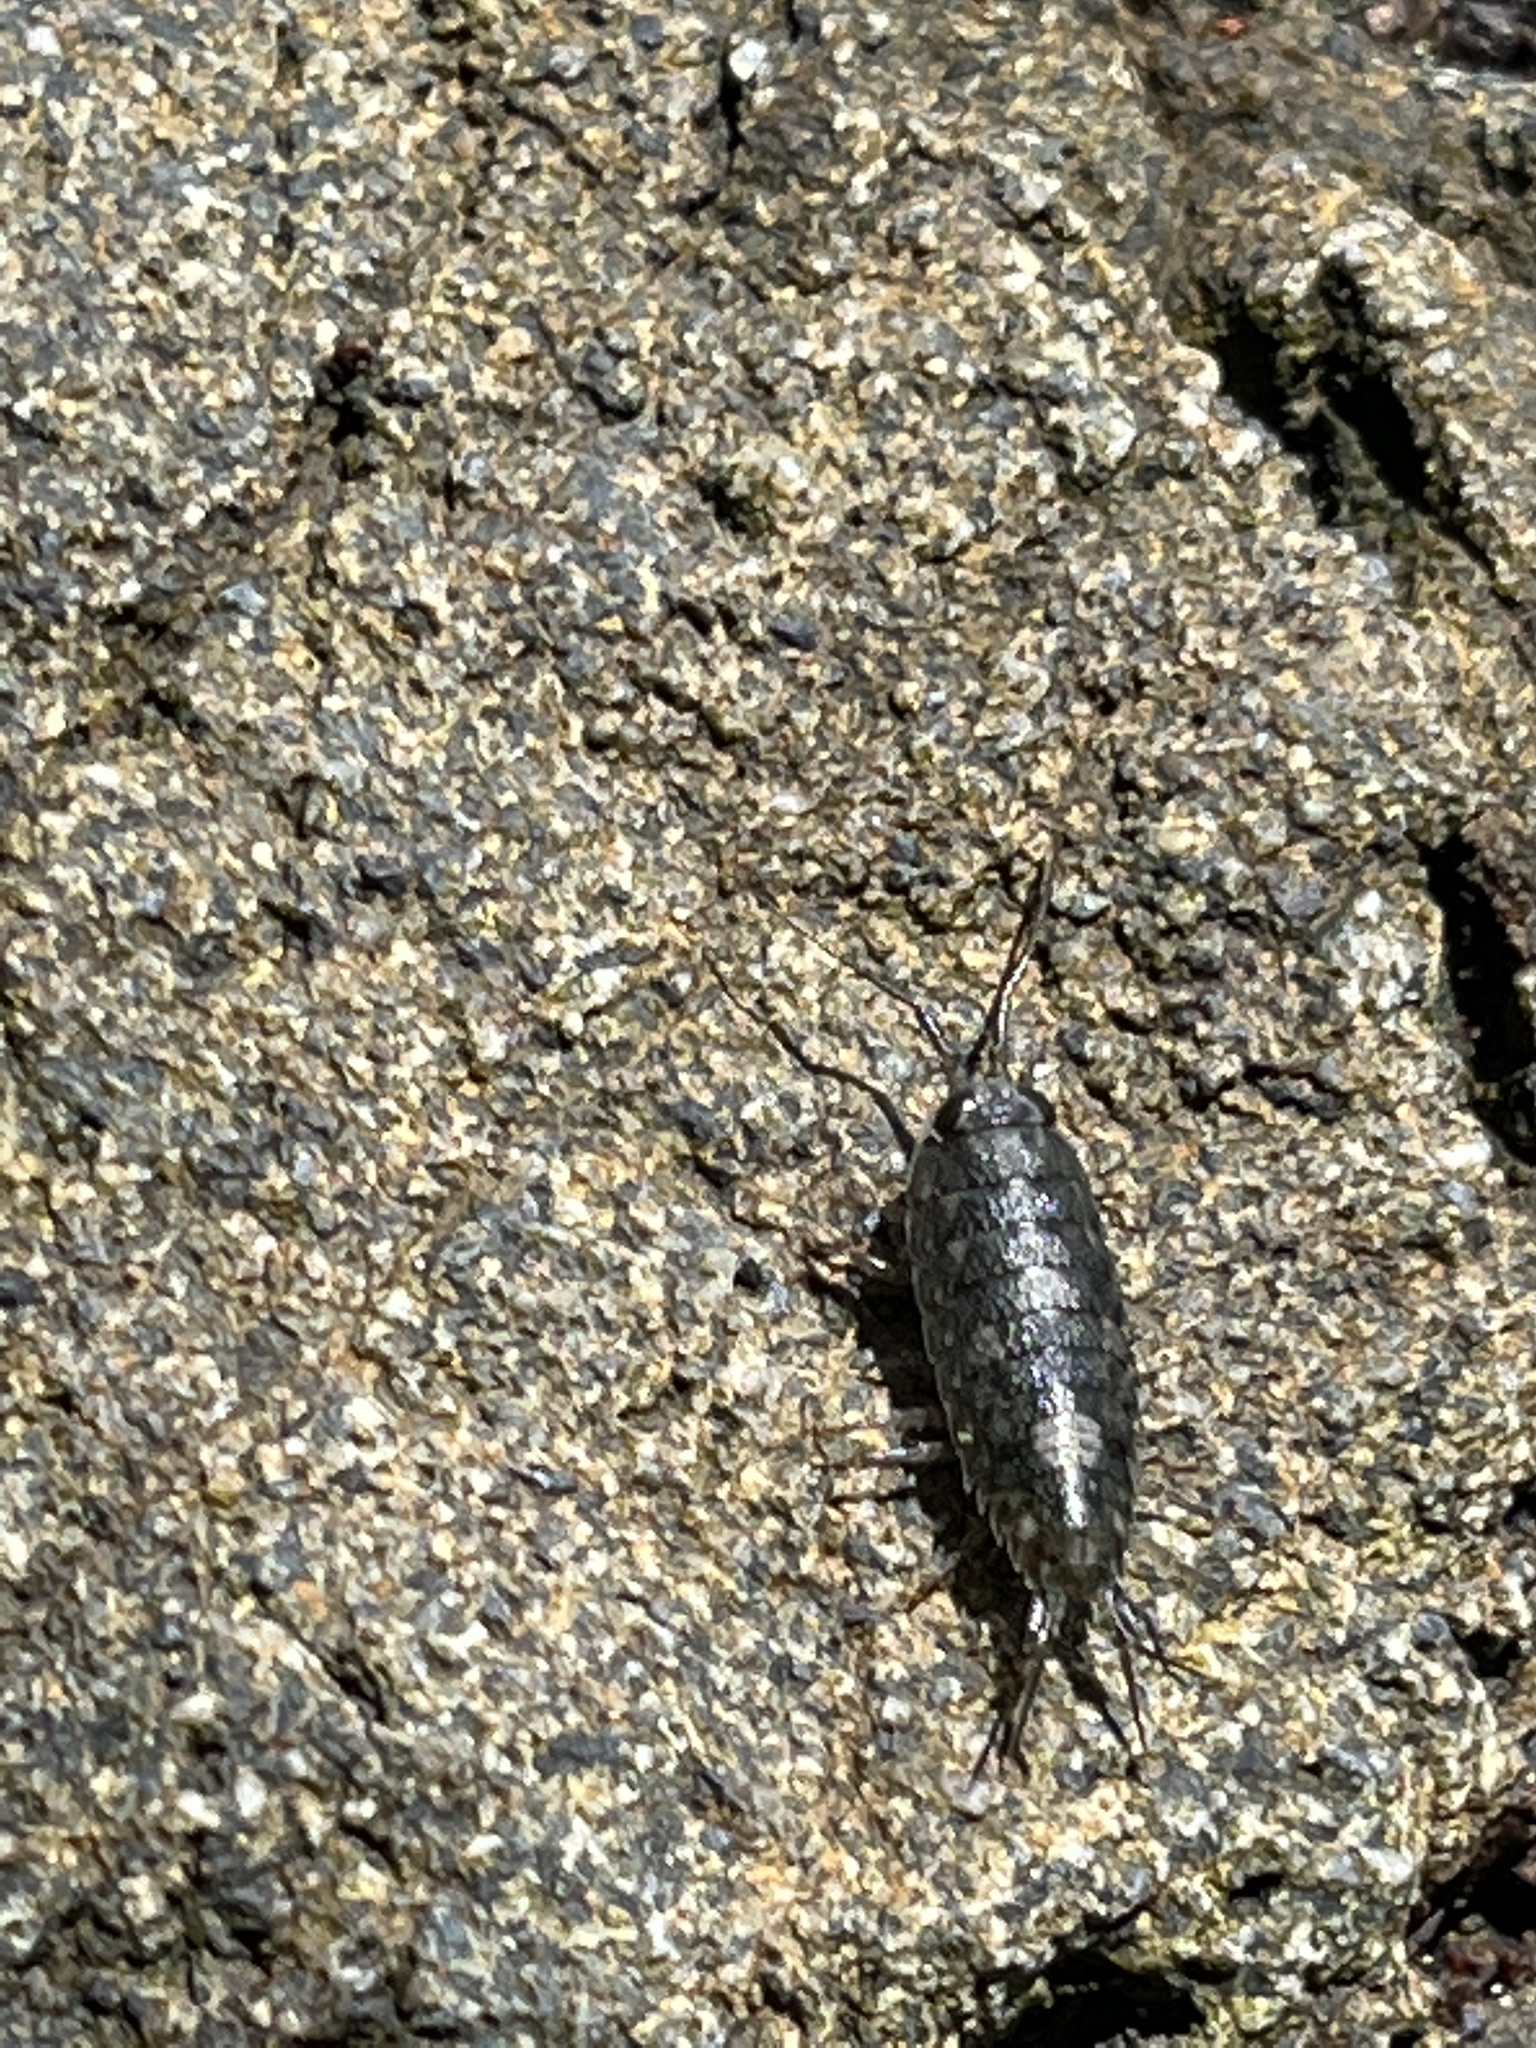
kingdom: Animalia
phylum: Arthropoda
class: Malacostraca
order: Isopoda
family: Ligiidae
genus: Ligia
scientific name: Ligia occidentalis
